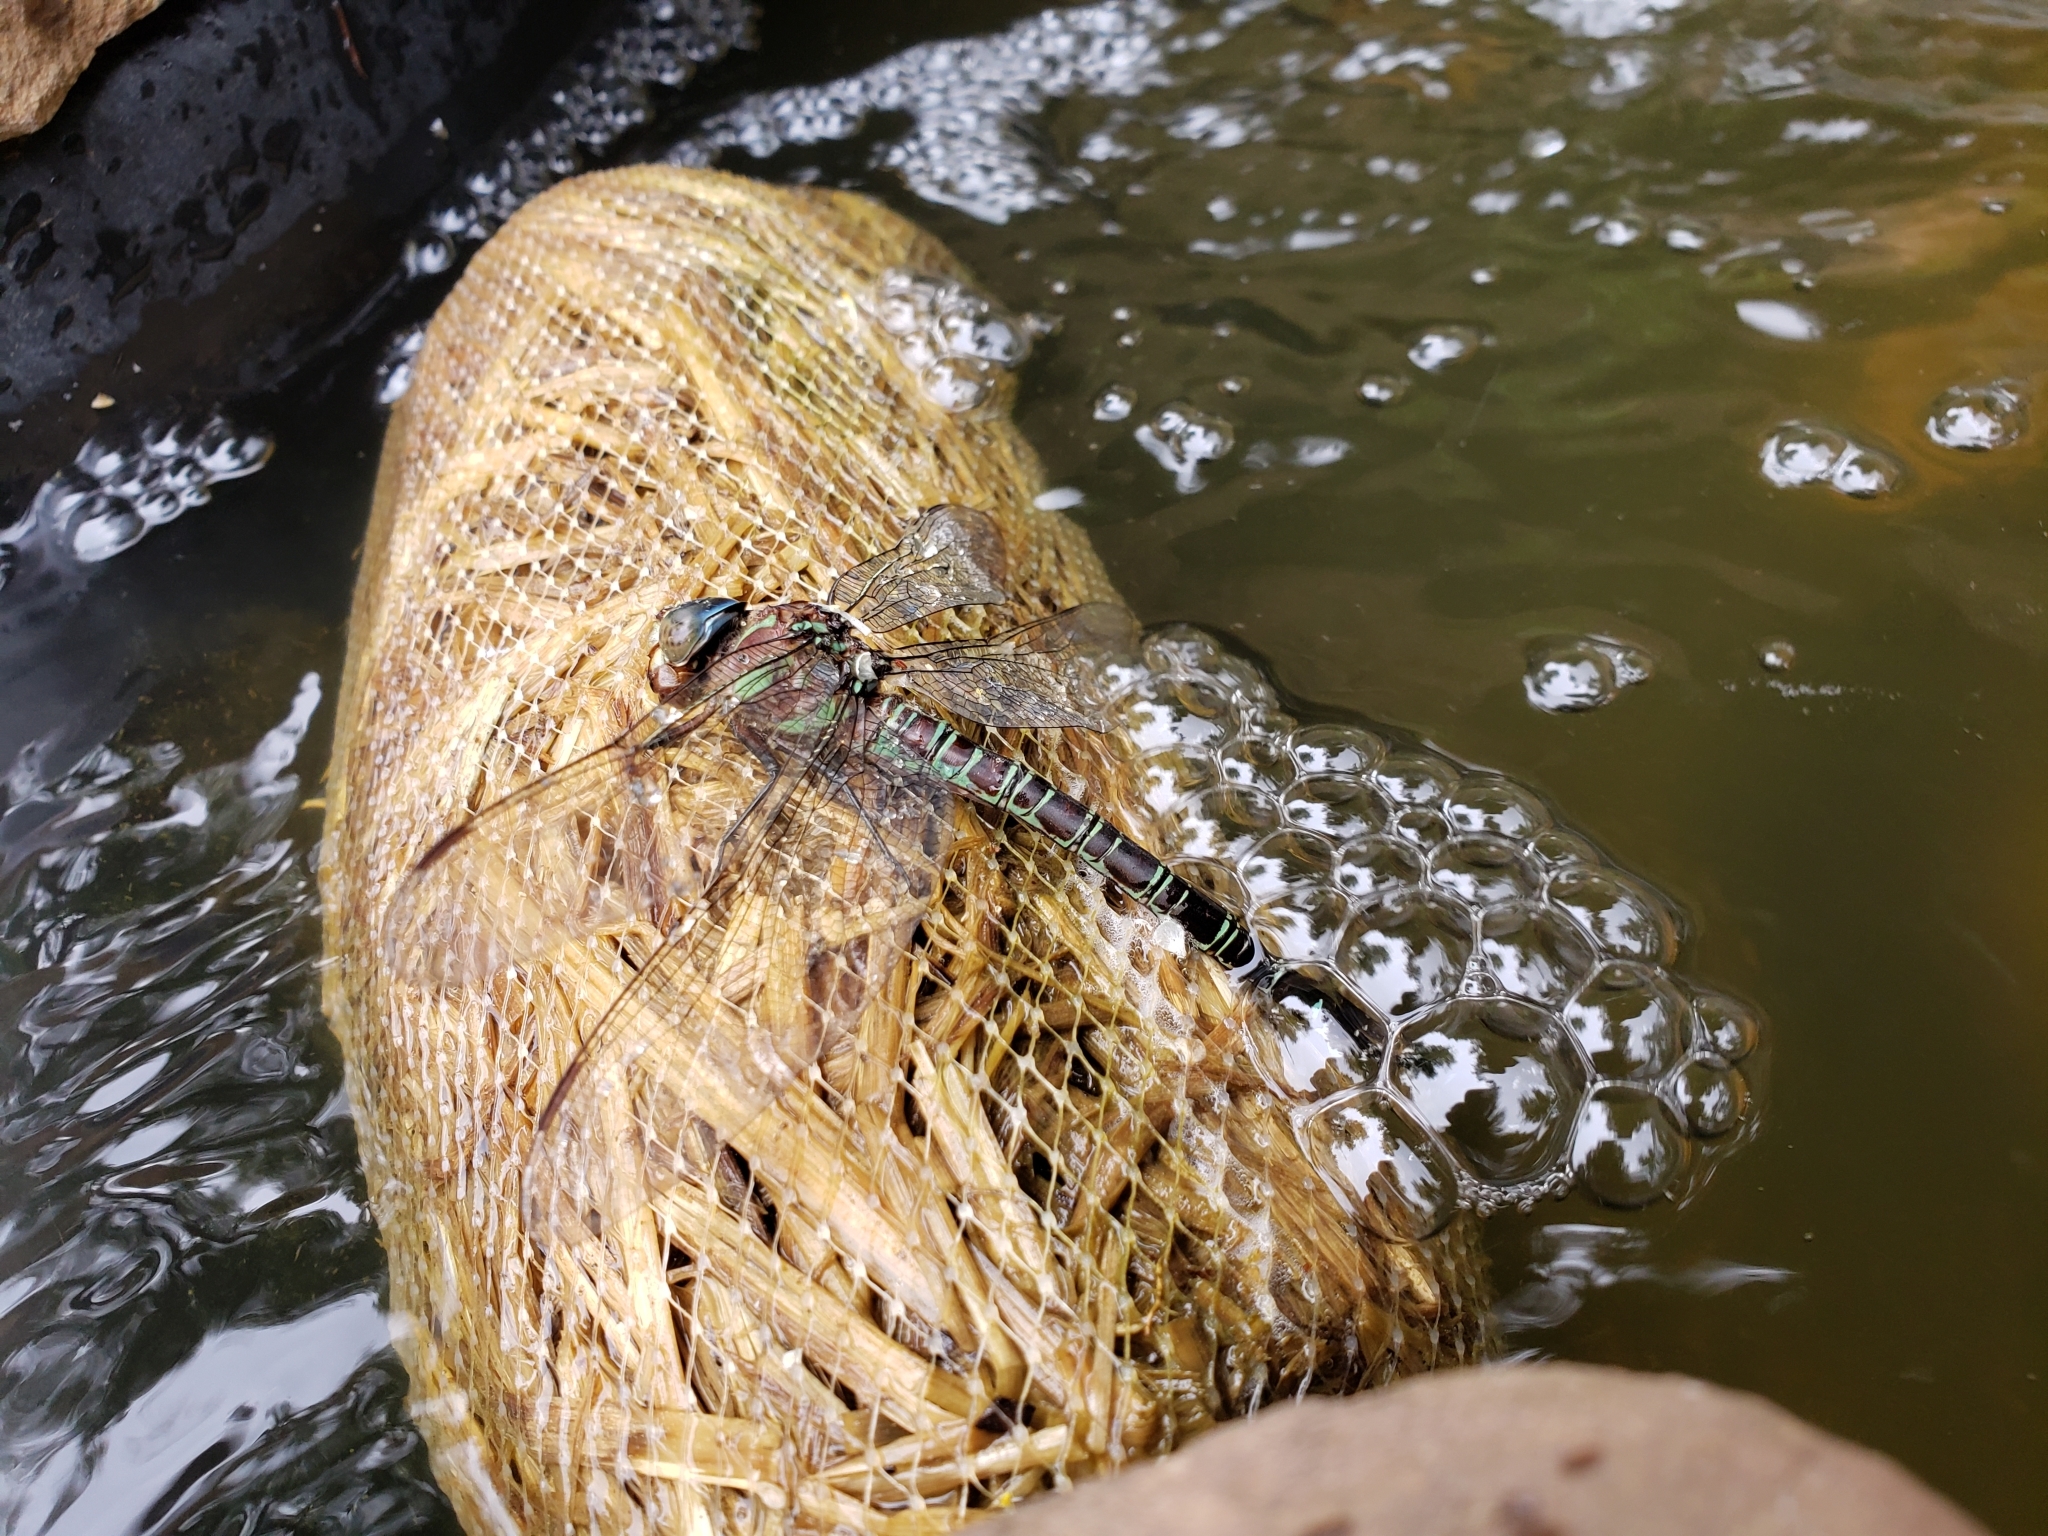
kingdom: Animalia
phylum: Arthropoda
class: Insecta
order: Odonata
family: Aeshnidae
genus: Epiaeschna
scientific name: Epiaeschna heros
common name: Swamp darner
